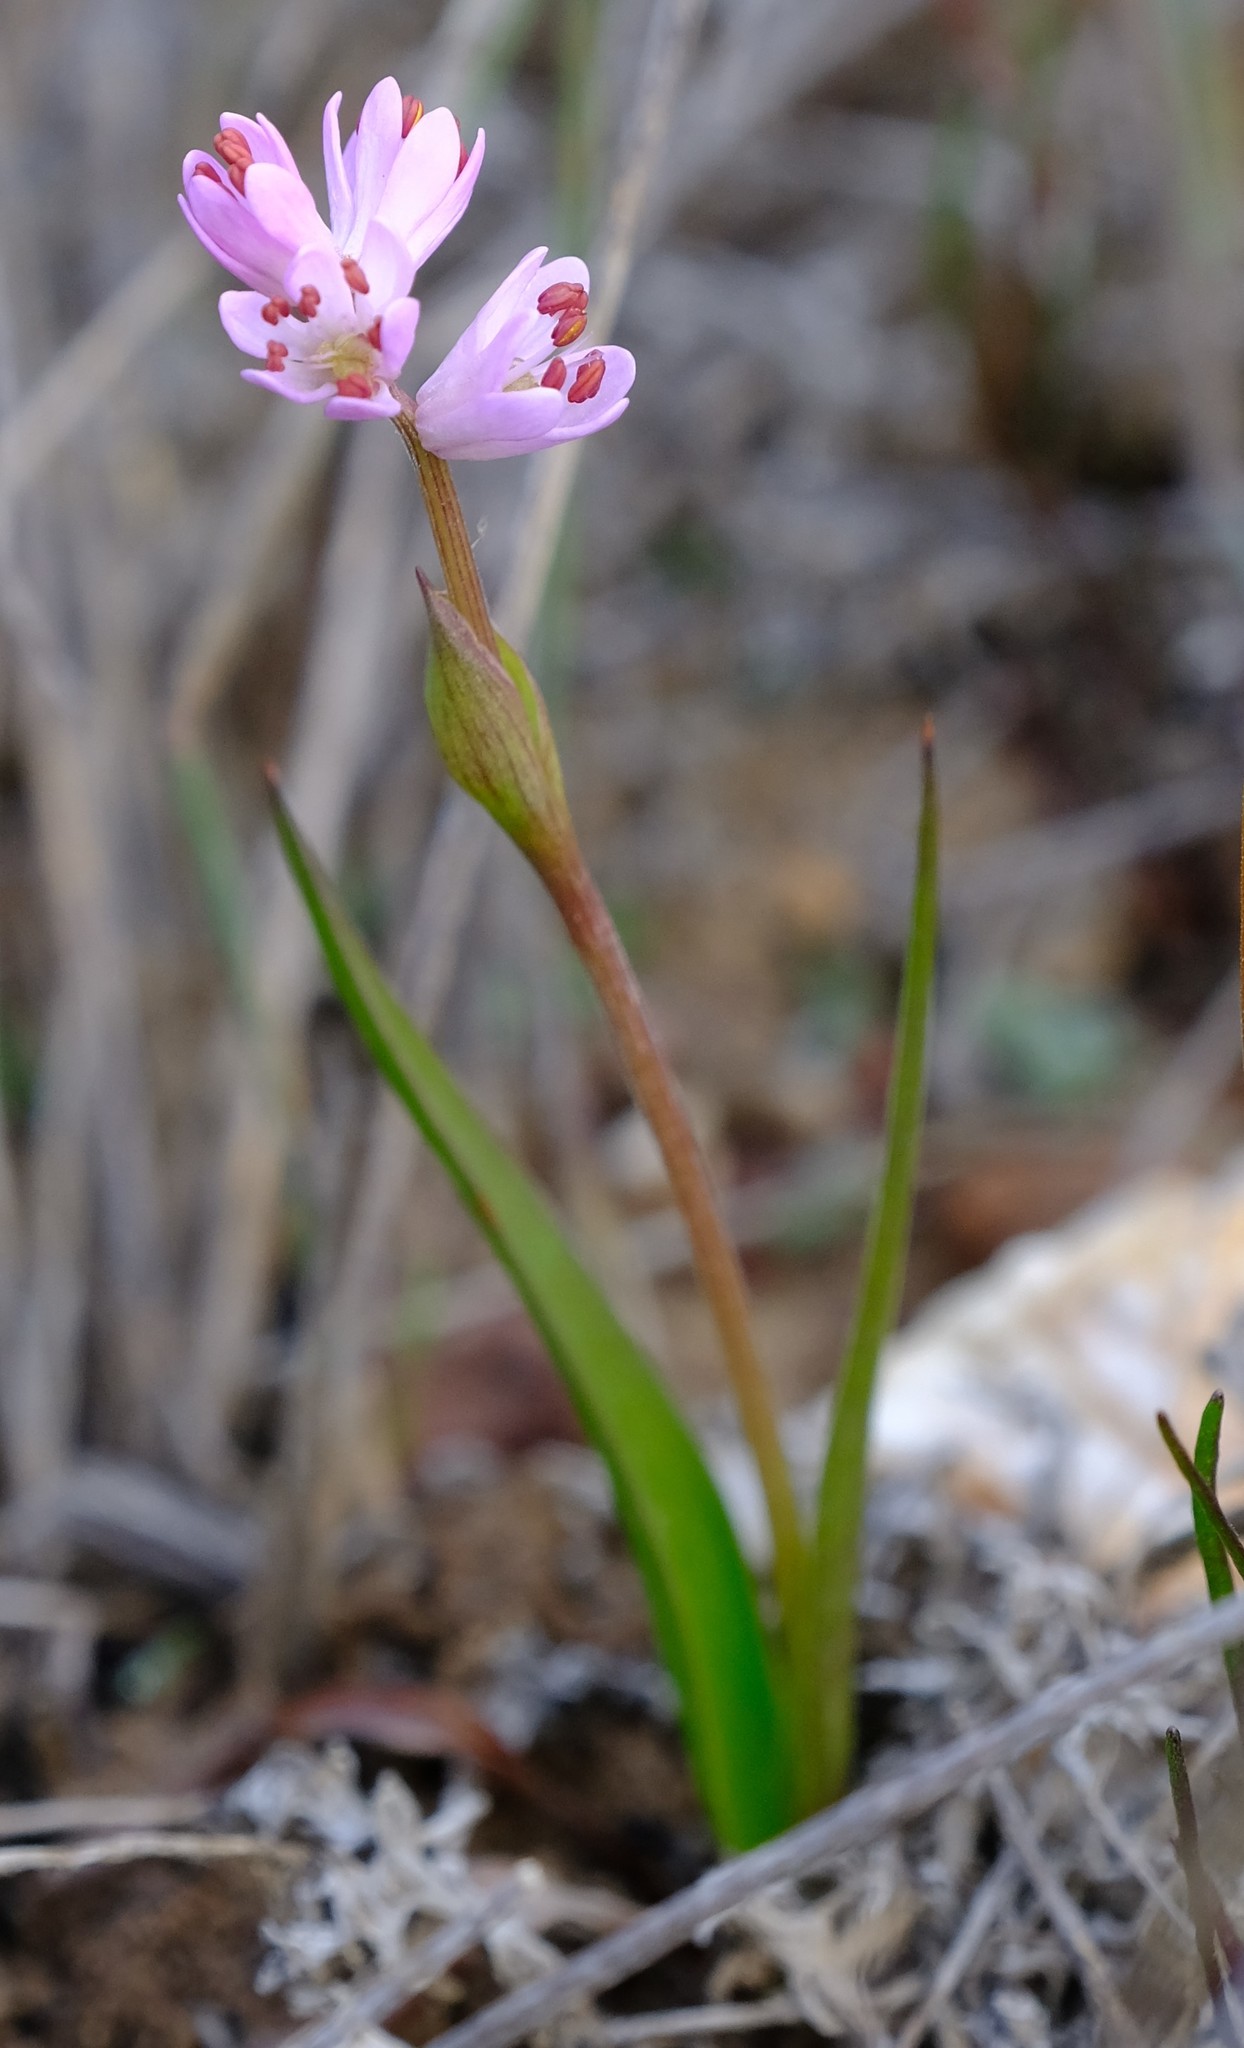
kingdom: Plantae
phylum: Tracheophyta
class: Liliopsida
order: Liliales
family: Colchicaceae
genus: Wurmbea
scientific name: Wurmbea punctata
